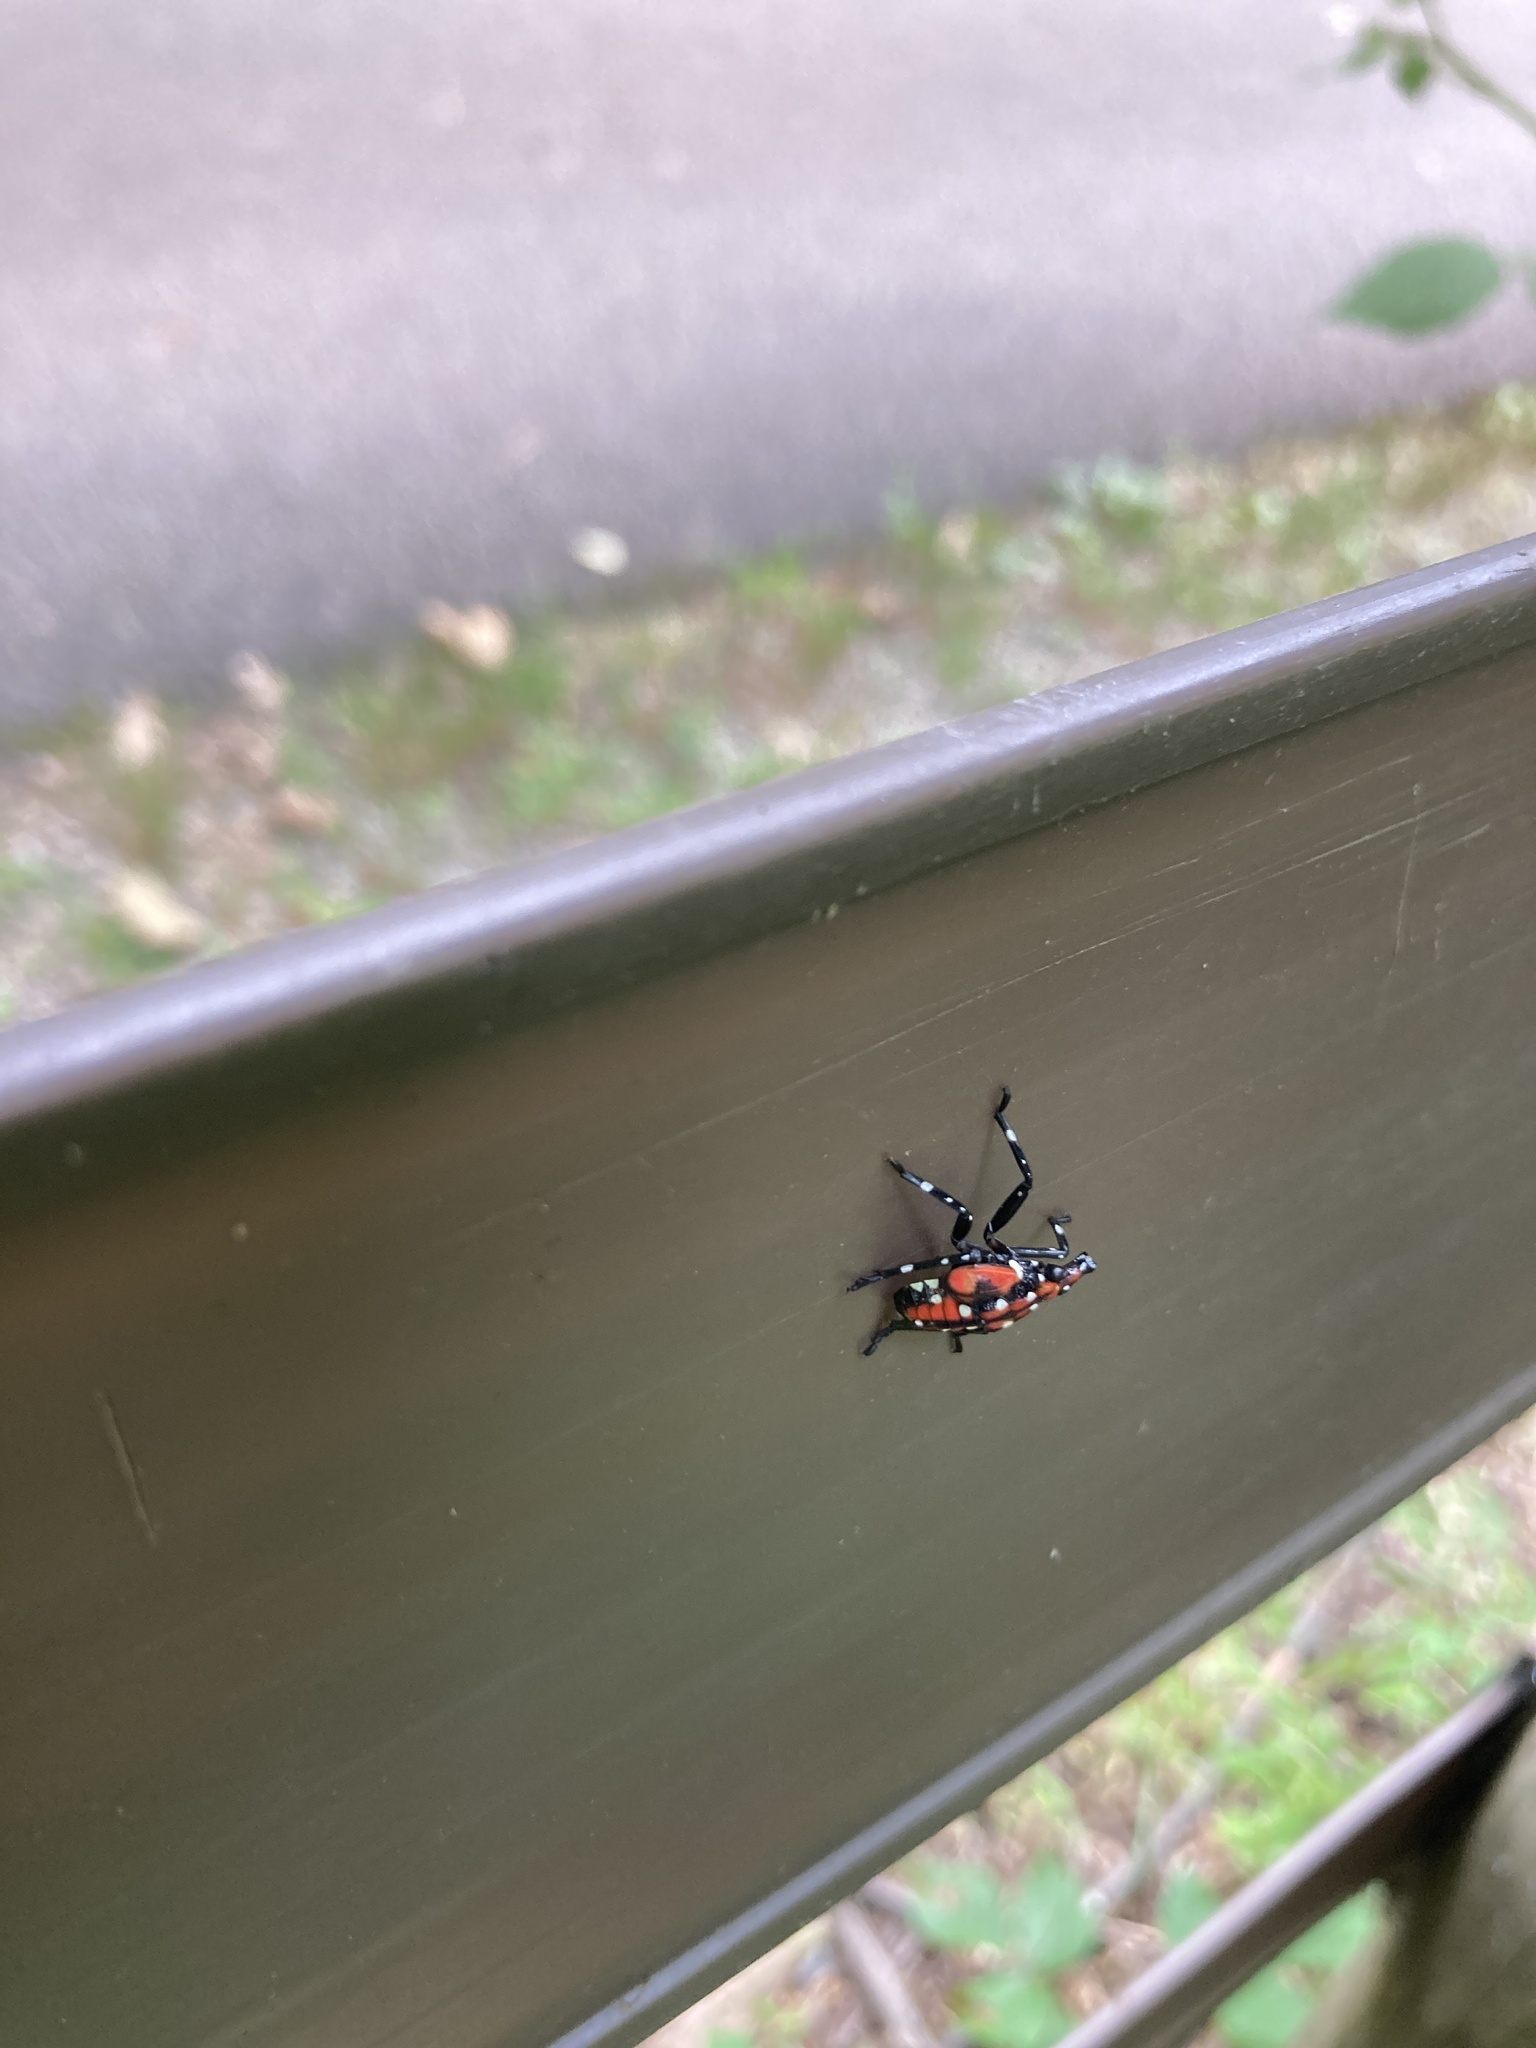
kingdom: Animalia
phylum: Arthropoda
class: Insecta
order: Hemiptera
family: Fulgoridae
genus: Lycorma
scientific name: Lycorma delicatula
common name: Spotted lanternfly
